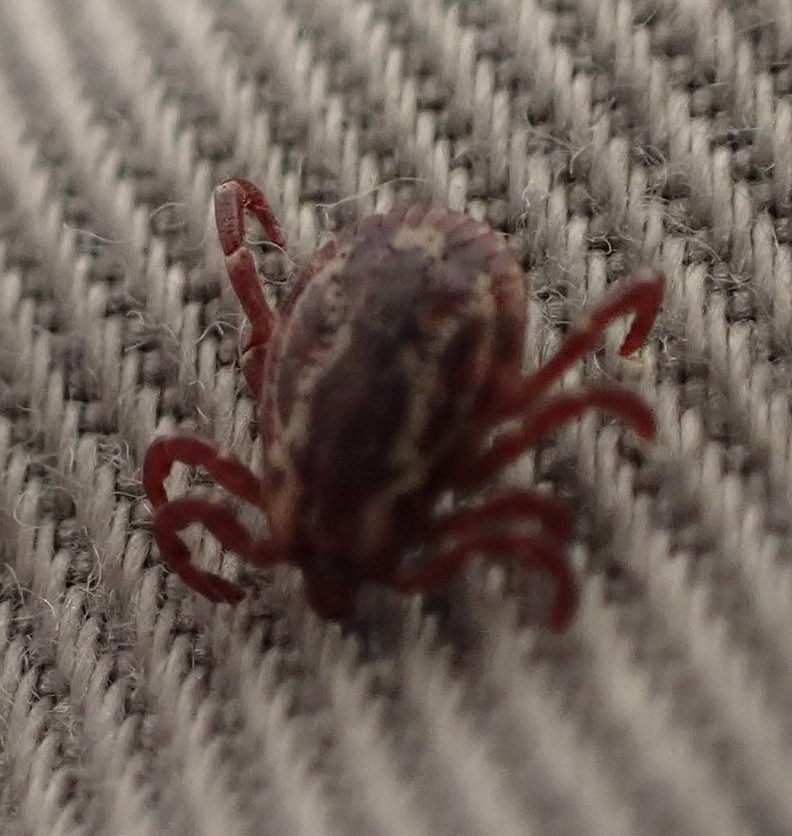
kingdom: Animalia
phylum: Arthropoda
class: Arachnida
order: Ixodida
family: Ixodidae
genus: Dermacentor
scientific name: Dermacentor variabilis
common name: American dog tick
